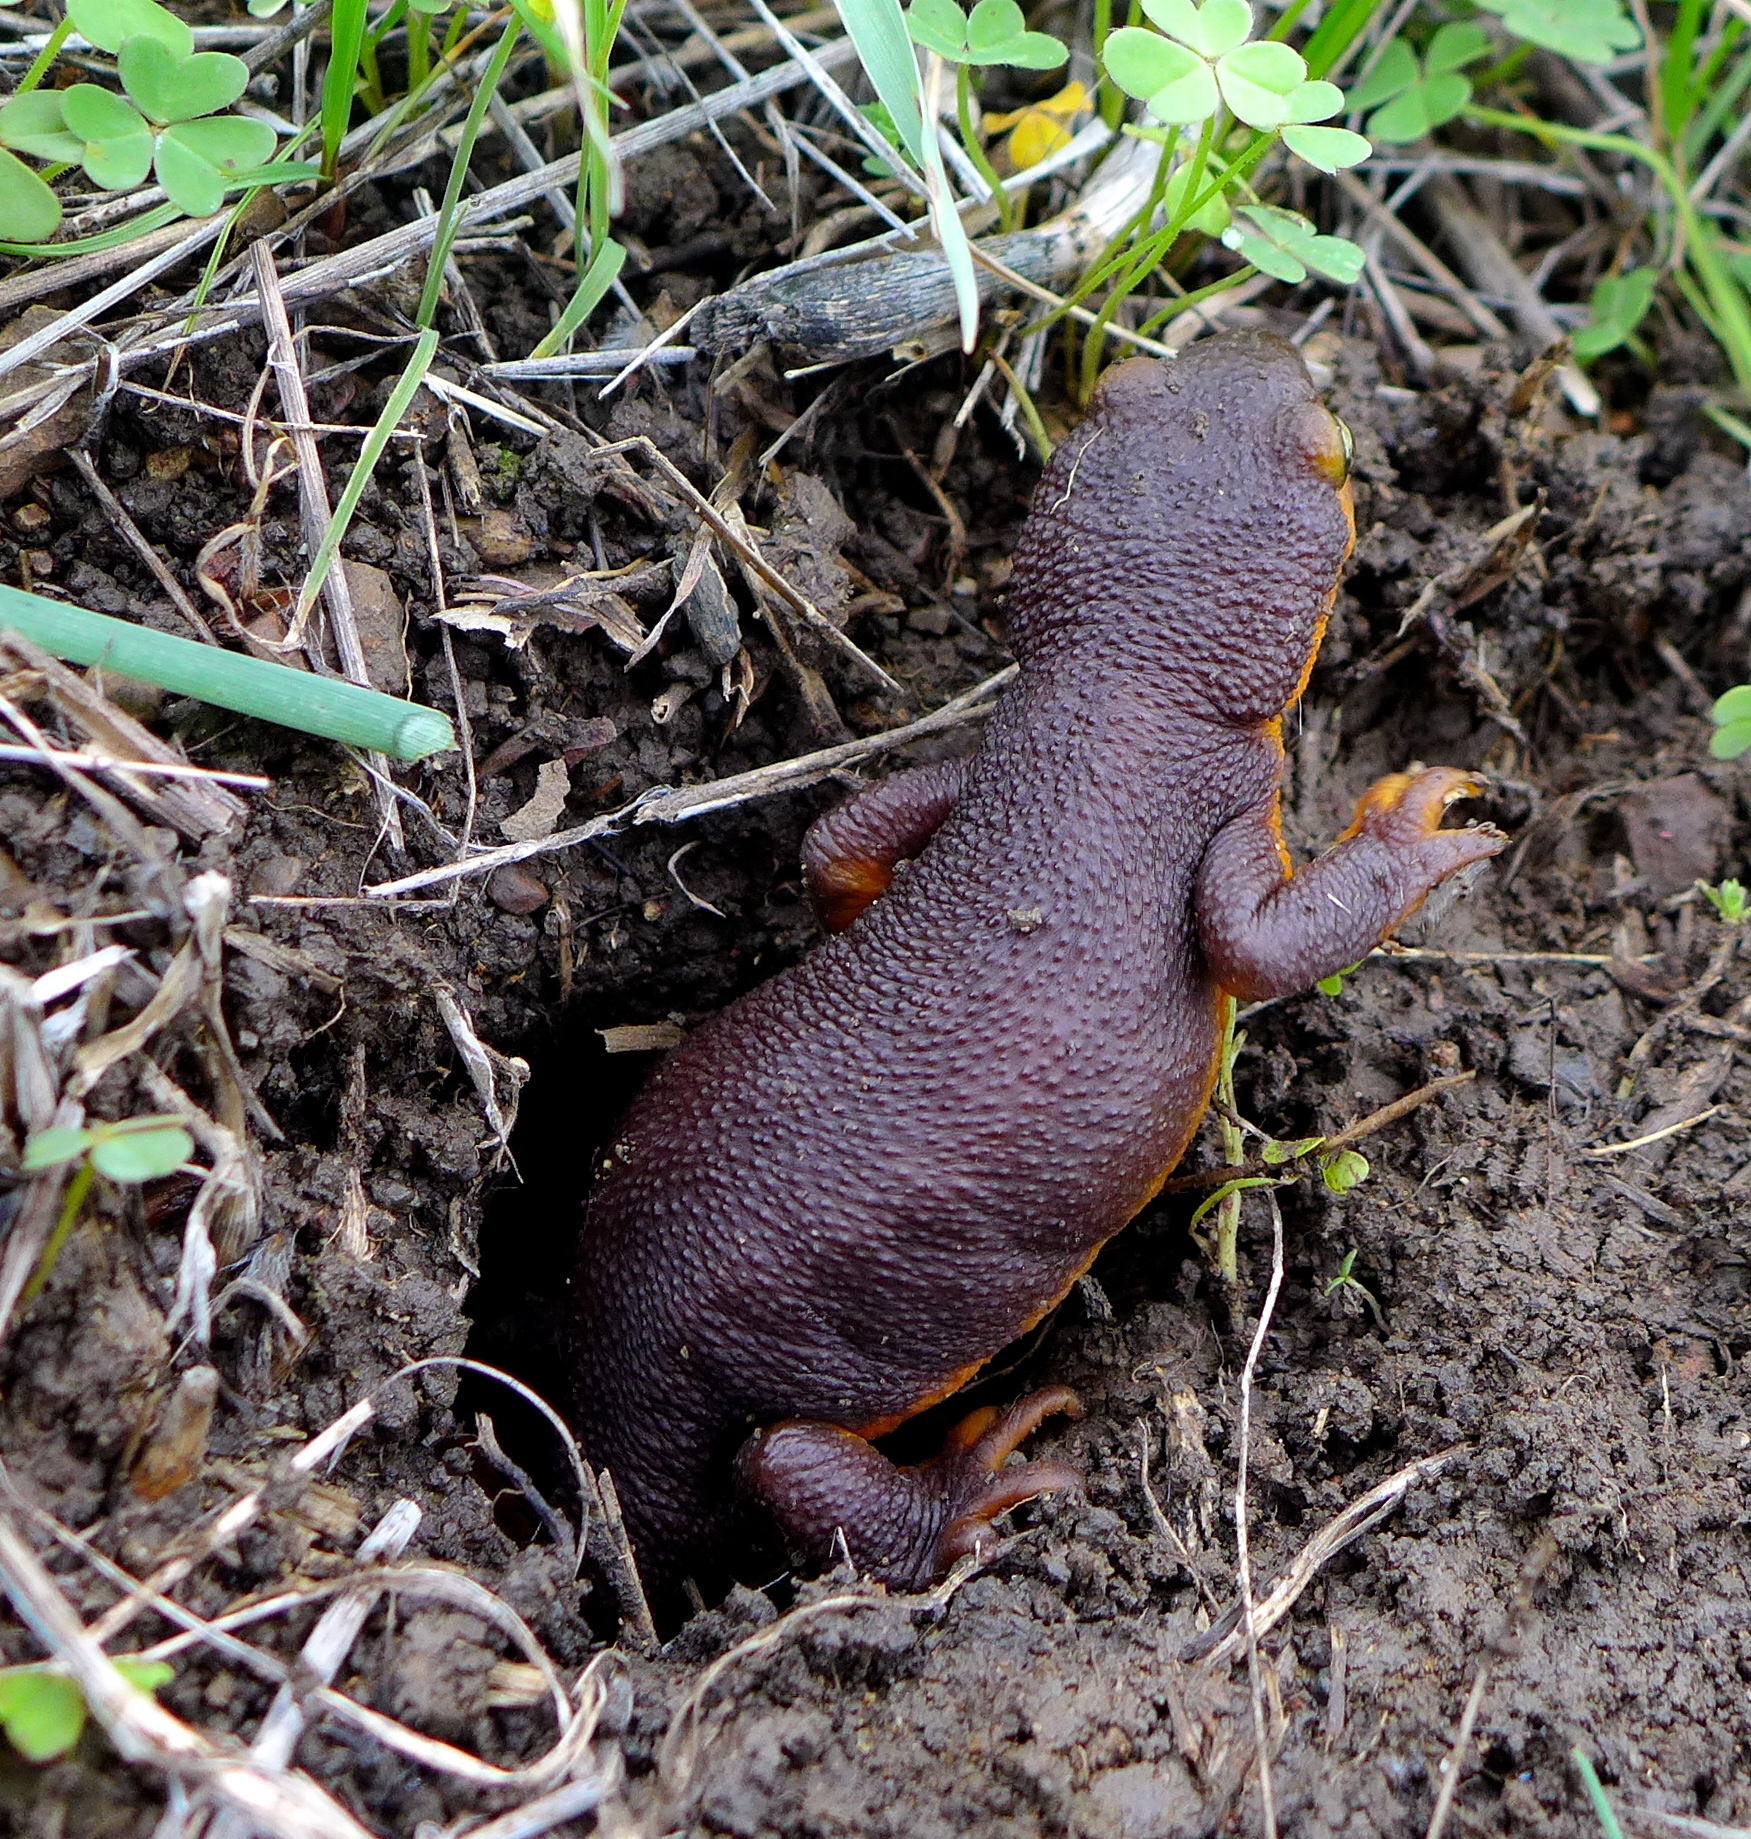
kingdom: Animalia
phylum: Chordata
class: Amphibia
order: Caudata
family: Salamandridae
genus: Taricha
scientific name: Taricha torosa
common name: California newt
